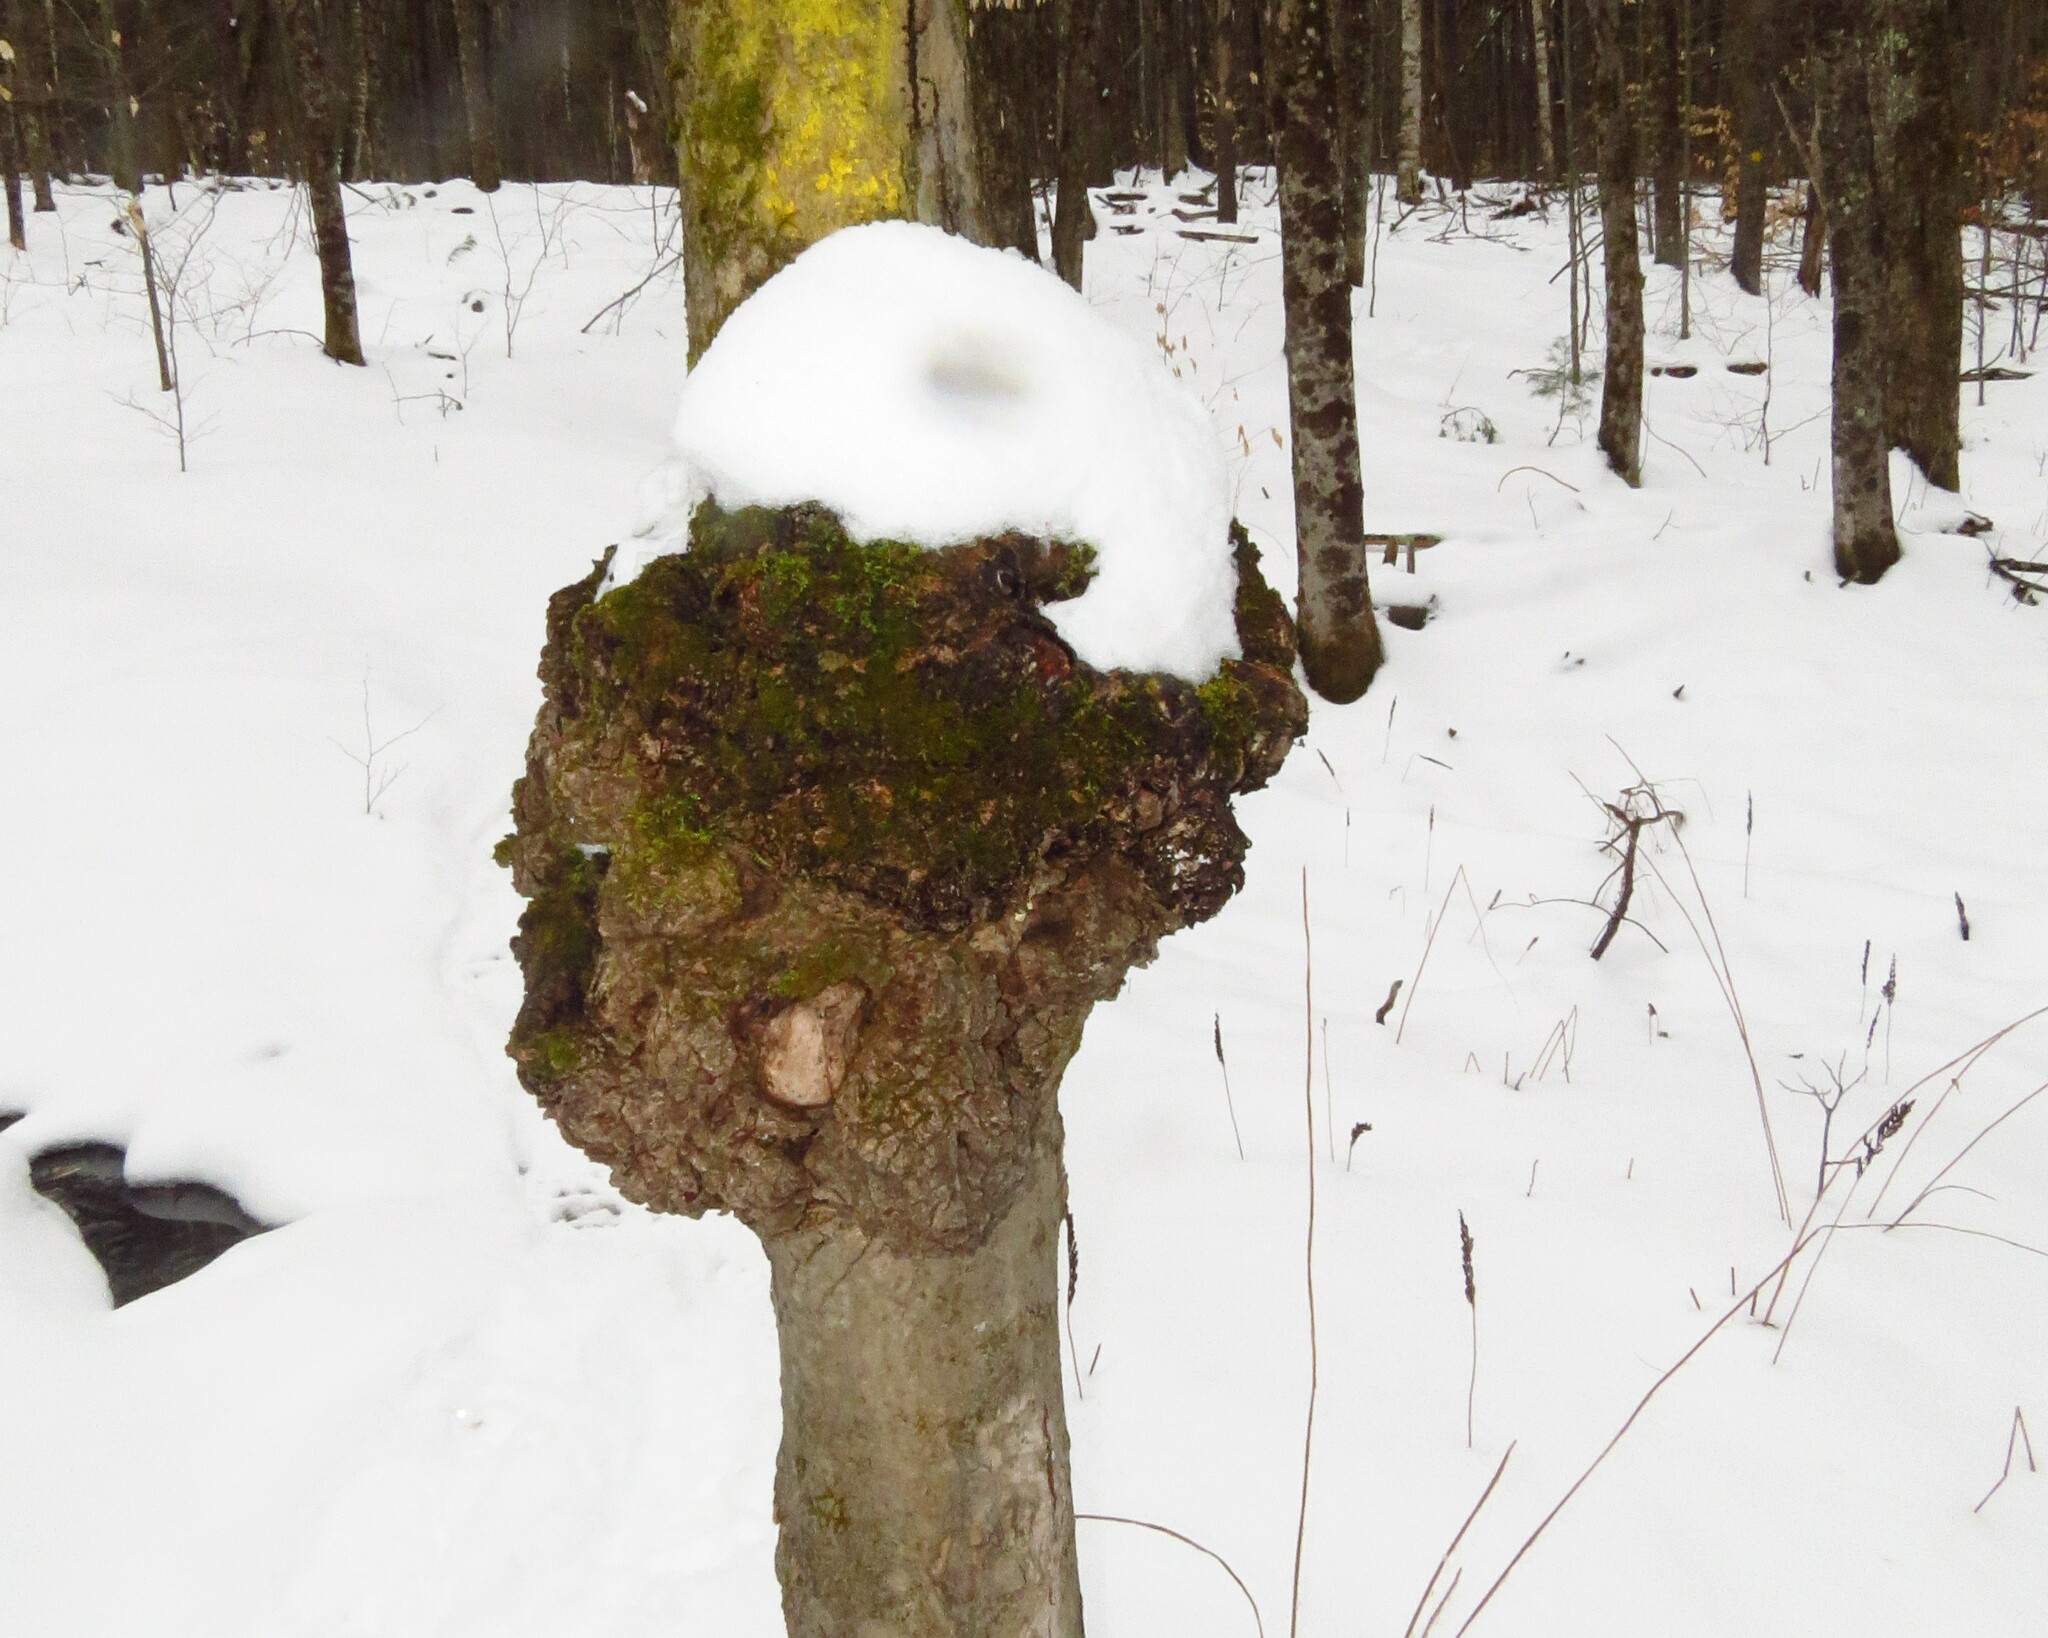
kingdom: Bacteria
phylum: Proteobacteria
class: Alphaproteobacteria
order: Rhizobiales
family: Rhizobiaceae
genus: Rhizobium
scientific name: Rhizobium Agrobacterium radiobacter
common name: Bacterial crown gall
